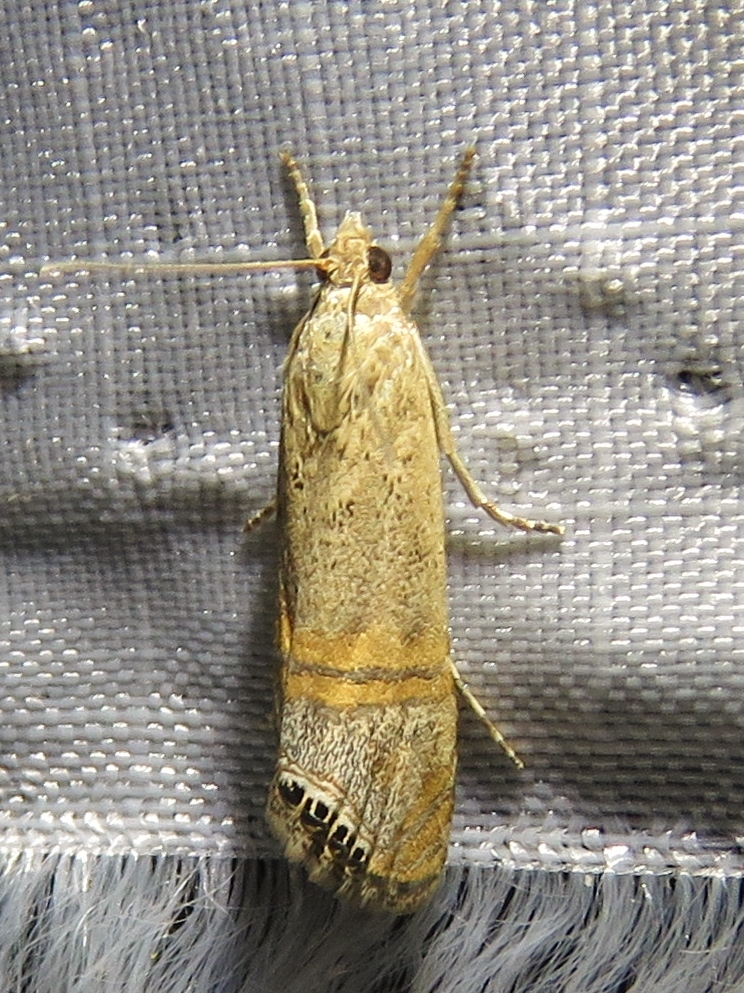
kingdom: Animalia
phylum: Arthropoda
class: Insecta
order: Lepidoptera
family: Crambidae
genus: Euchromius
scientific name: Euchromius ocellea
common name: Necklace veneer moth
